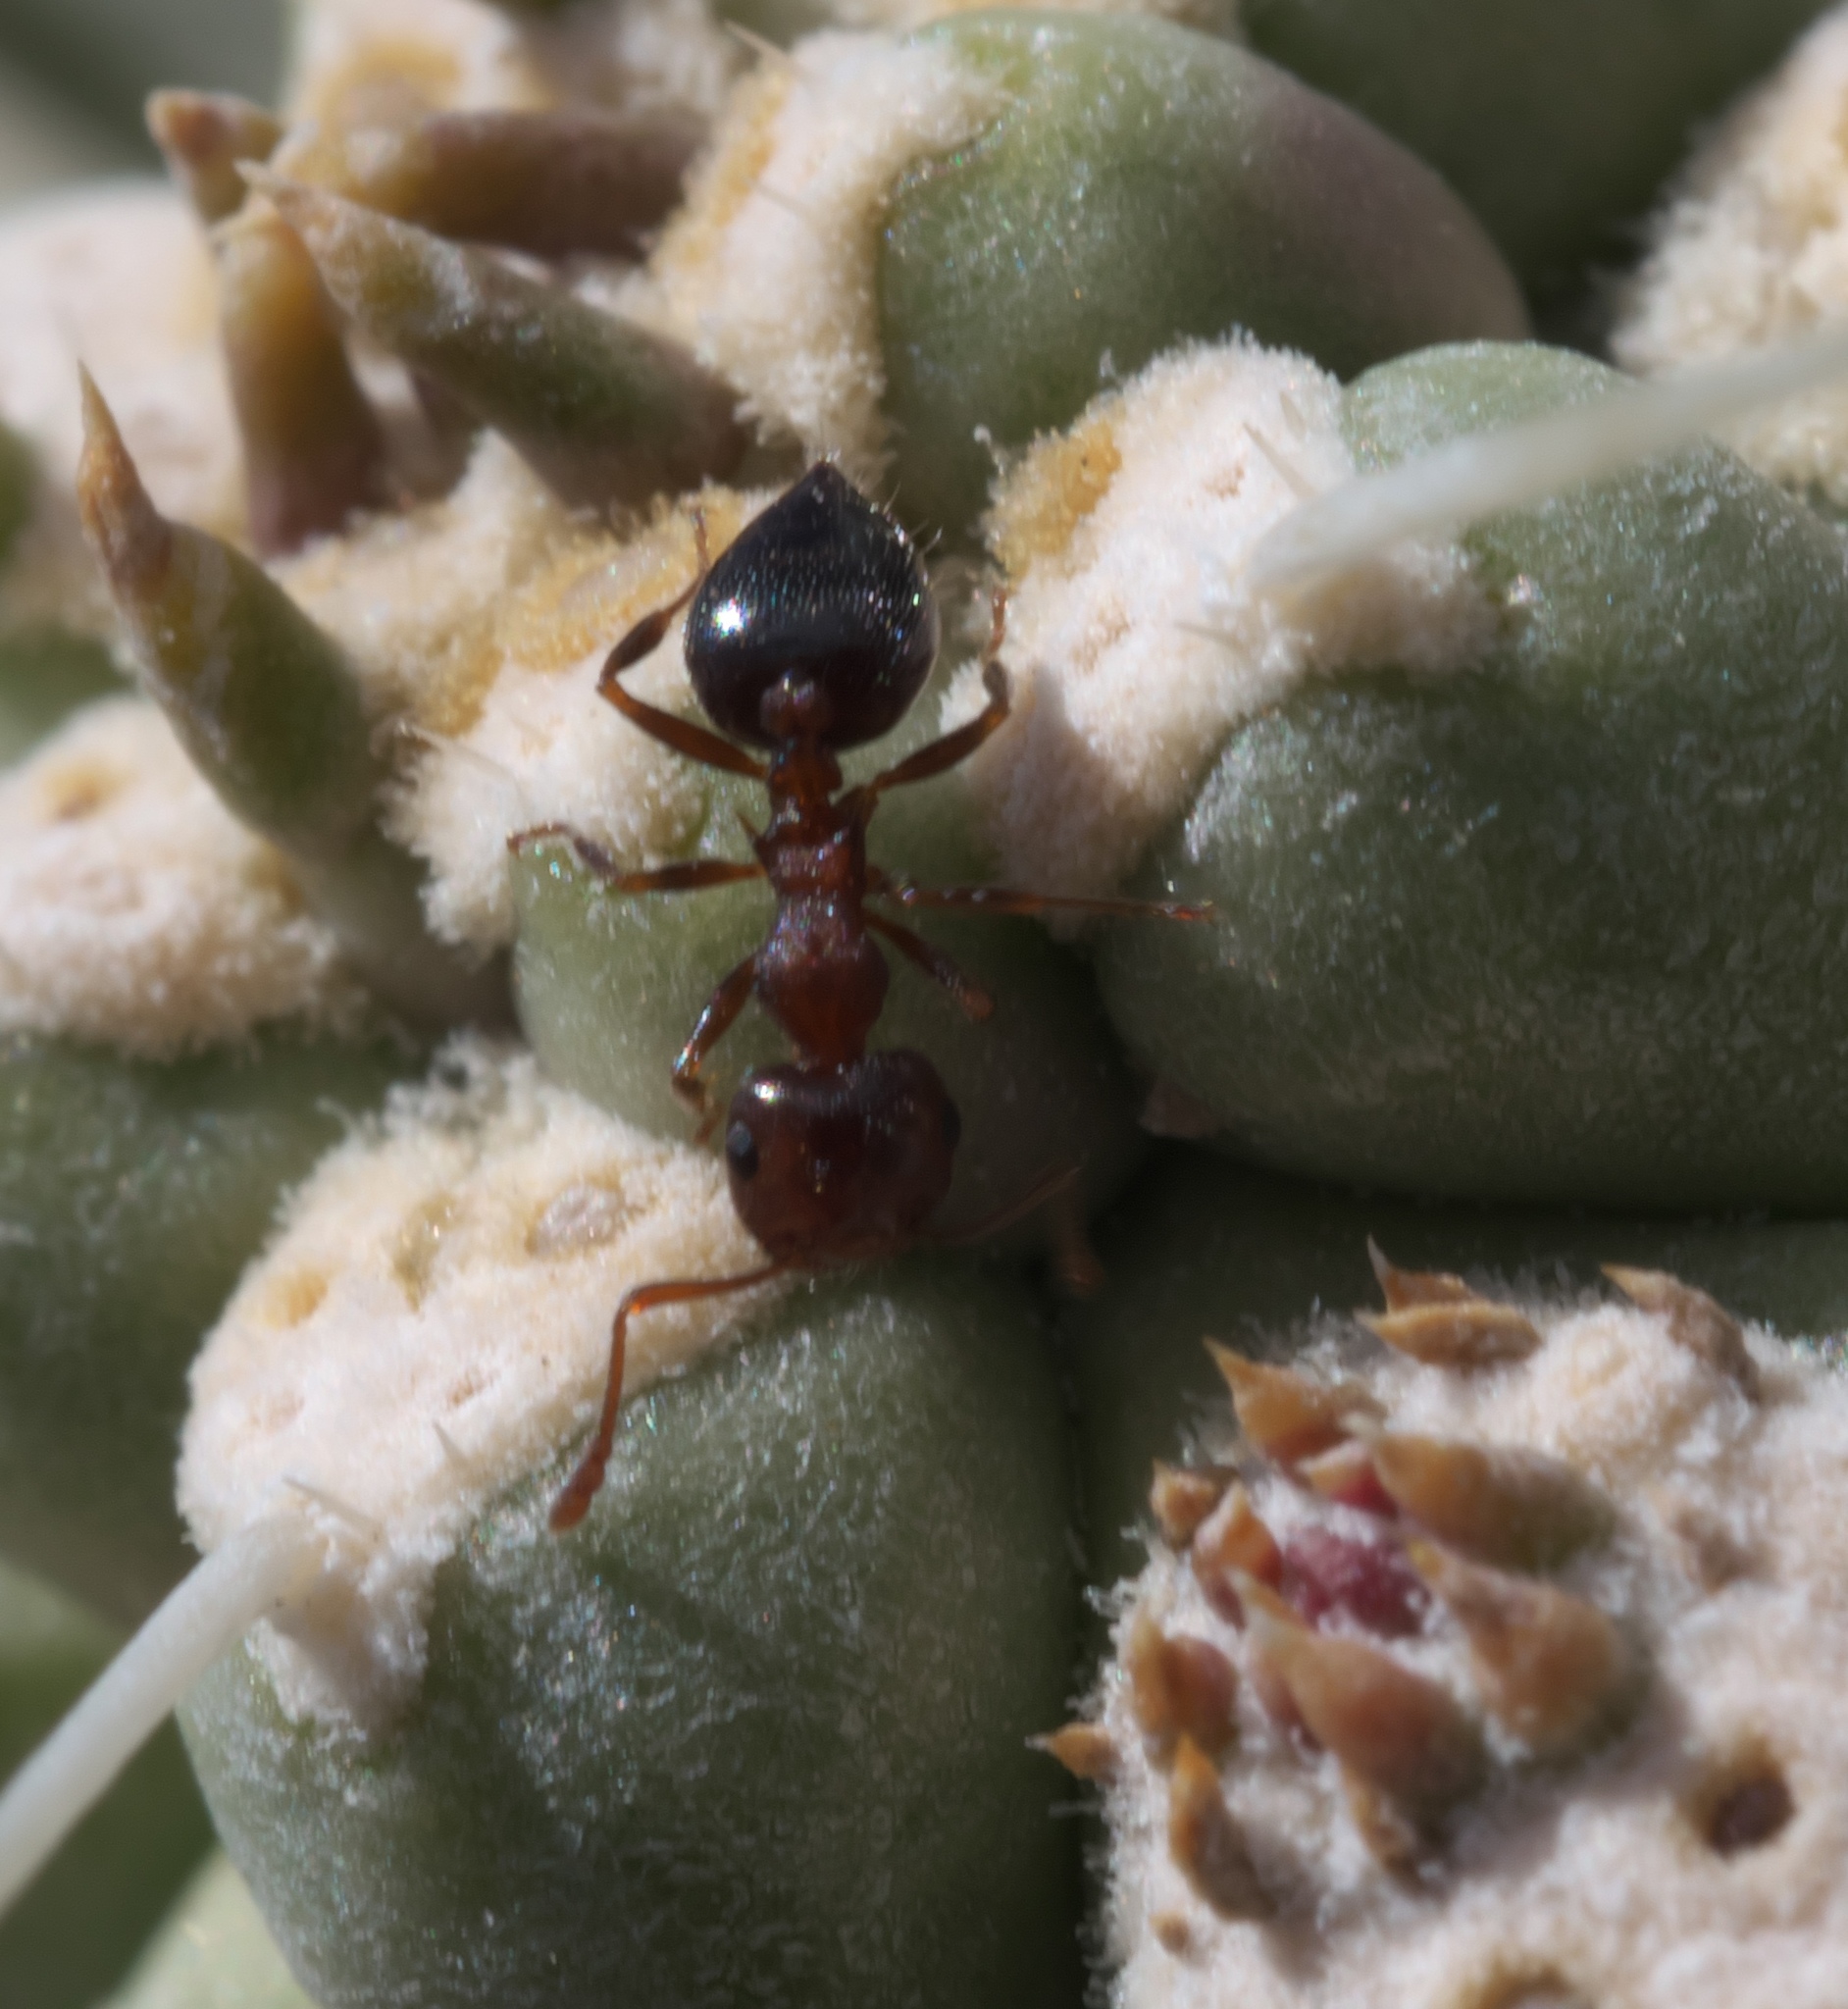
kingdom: Animalia
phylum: Arthropoda
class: Insecta
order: Hymenoptera
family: Formicidae
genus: Crematogaster
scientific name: Crematogaster
